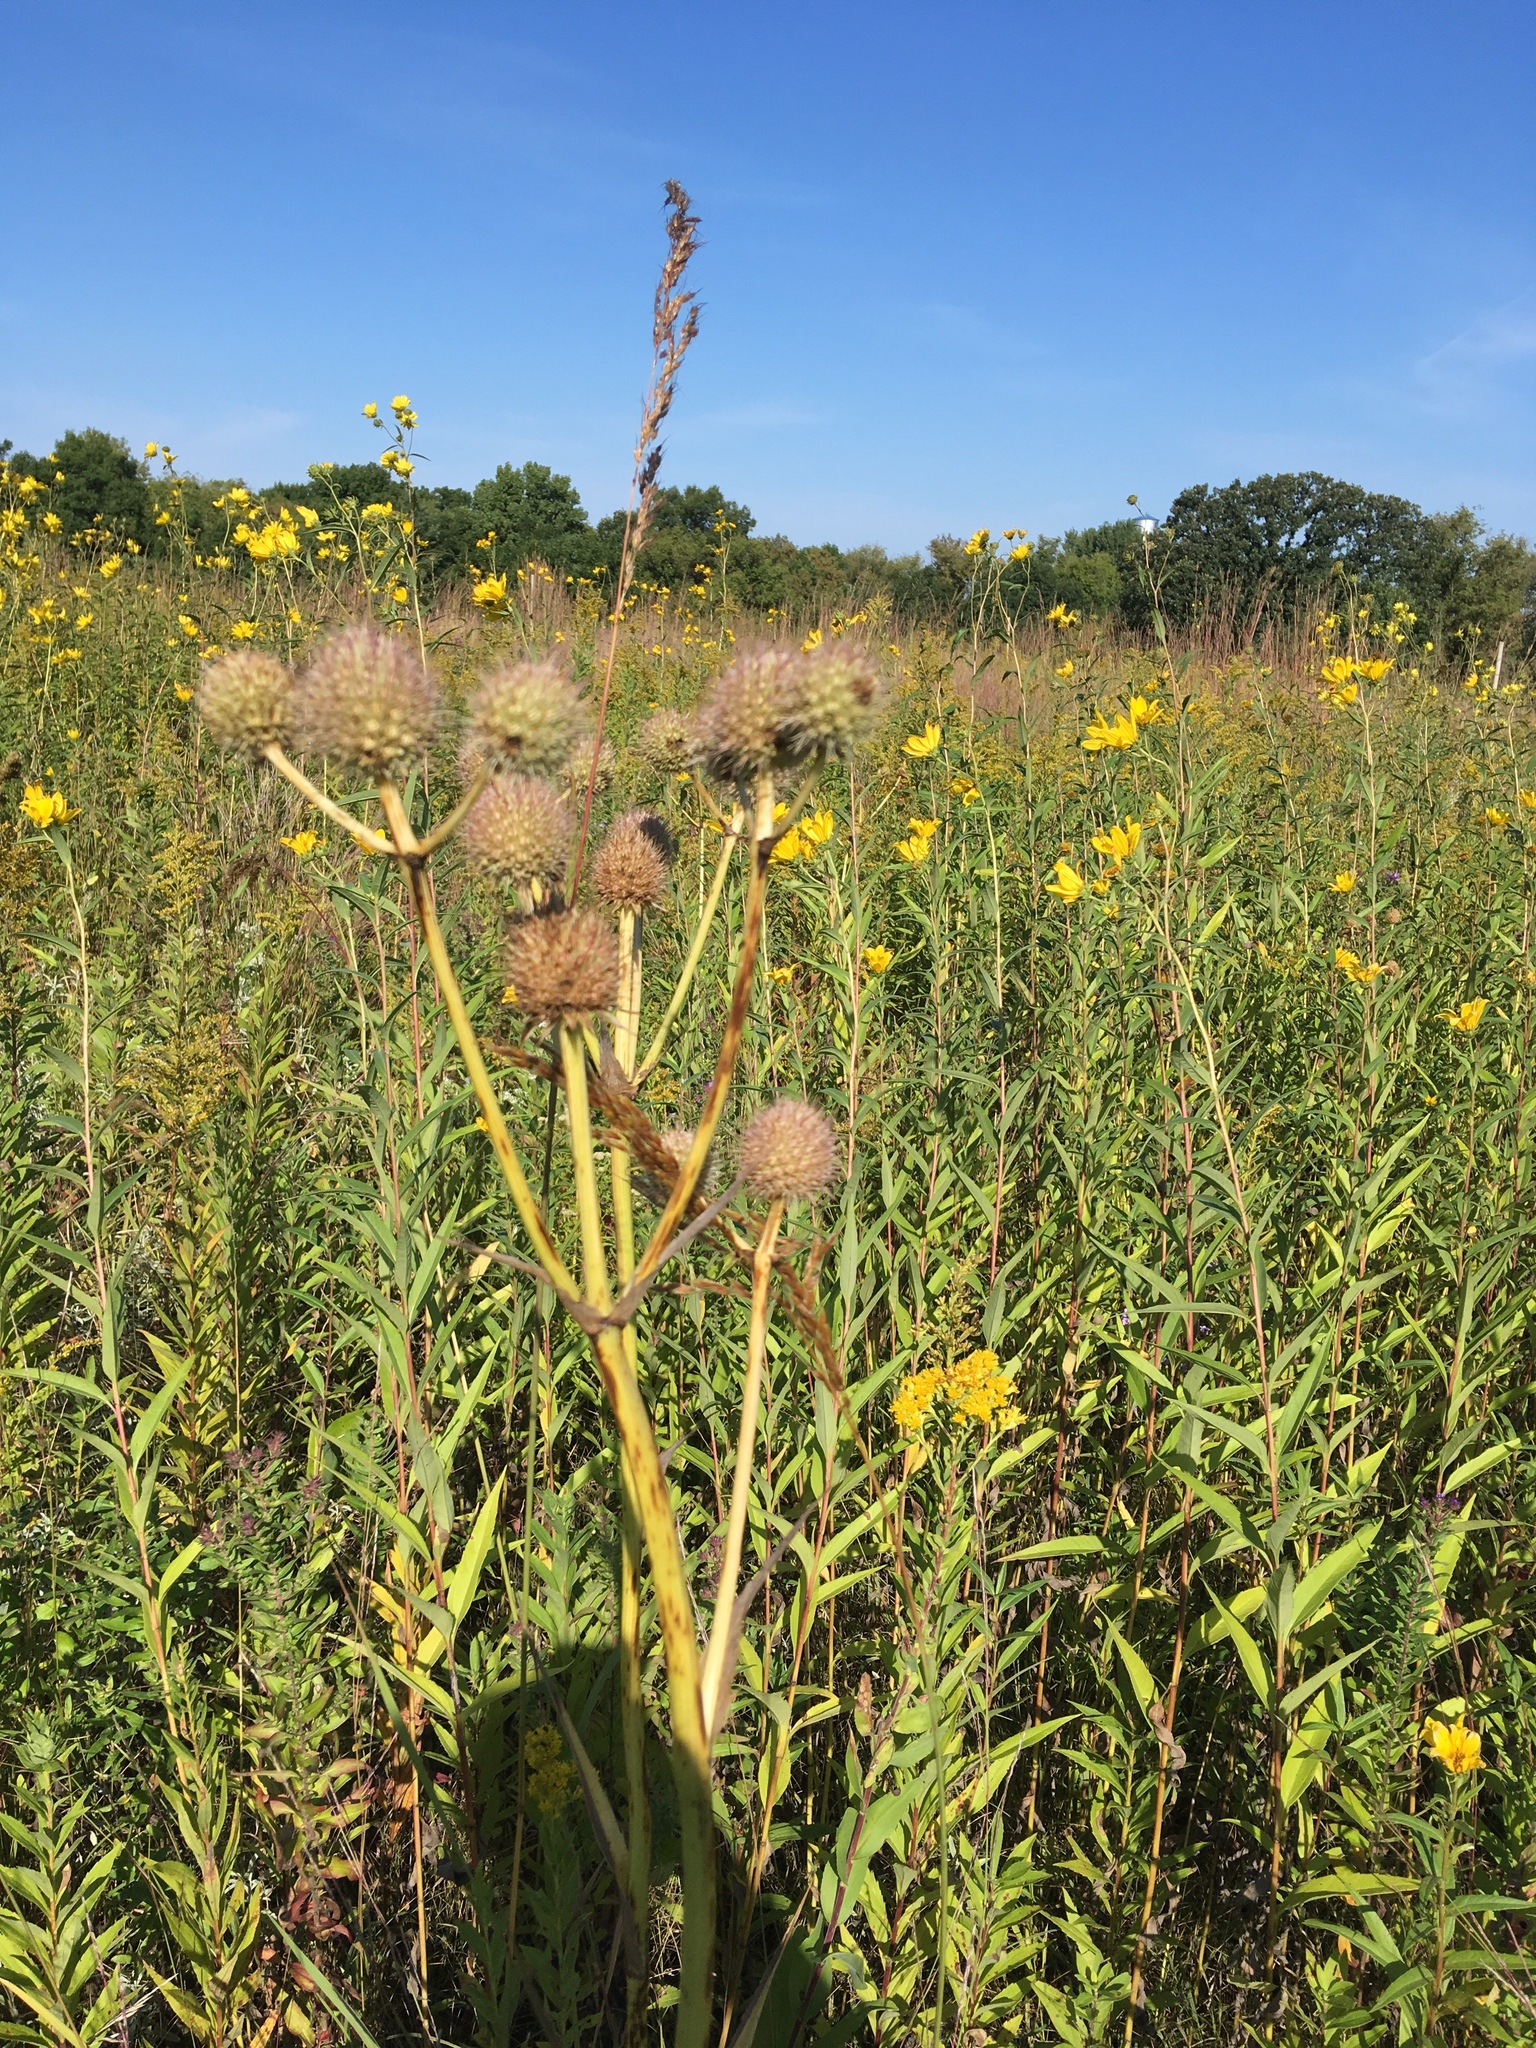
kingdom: Plantae
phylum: Tracheophyta
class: Magnoliopsida
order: Apiales
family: Apiaceae
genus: Eryngium
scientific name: Eryngium yuccifolium
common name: Button eryngo
